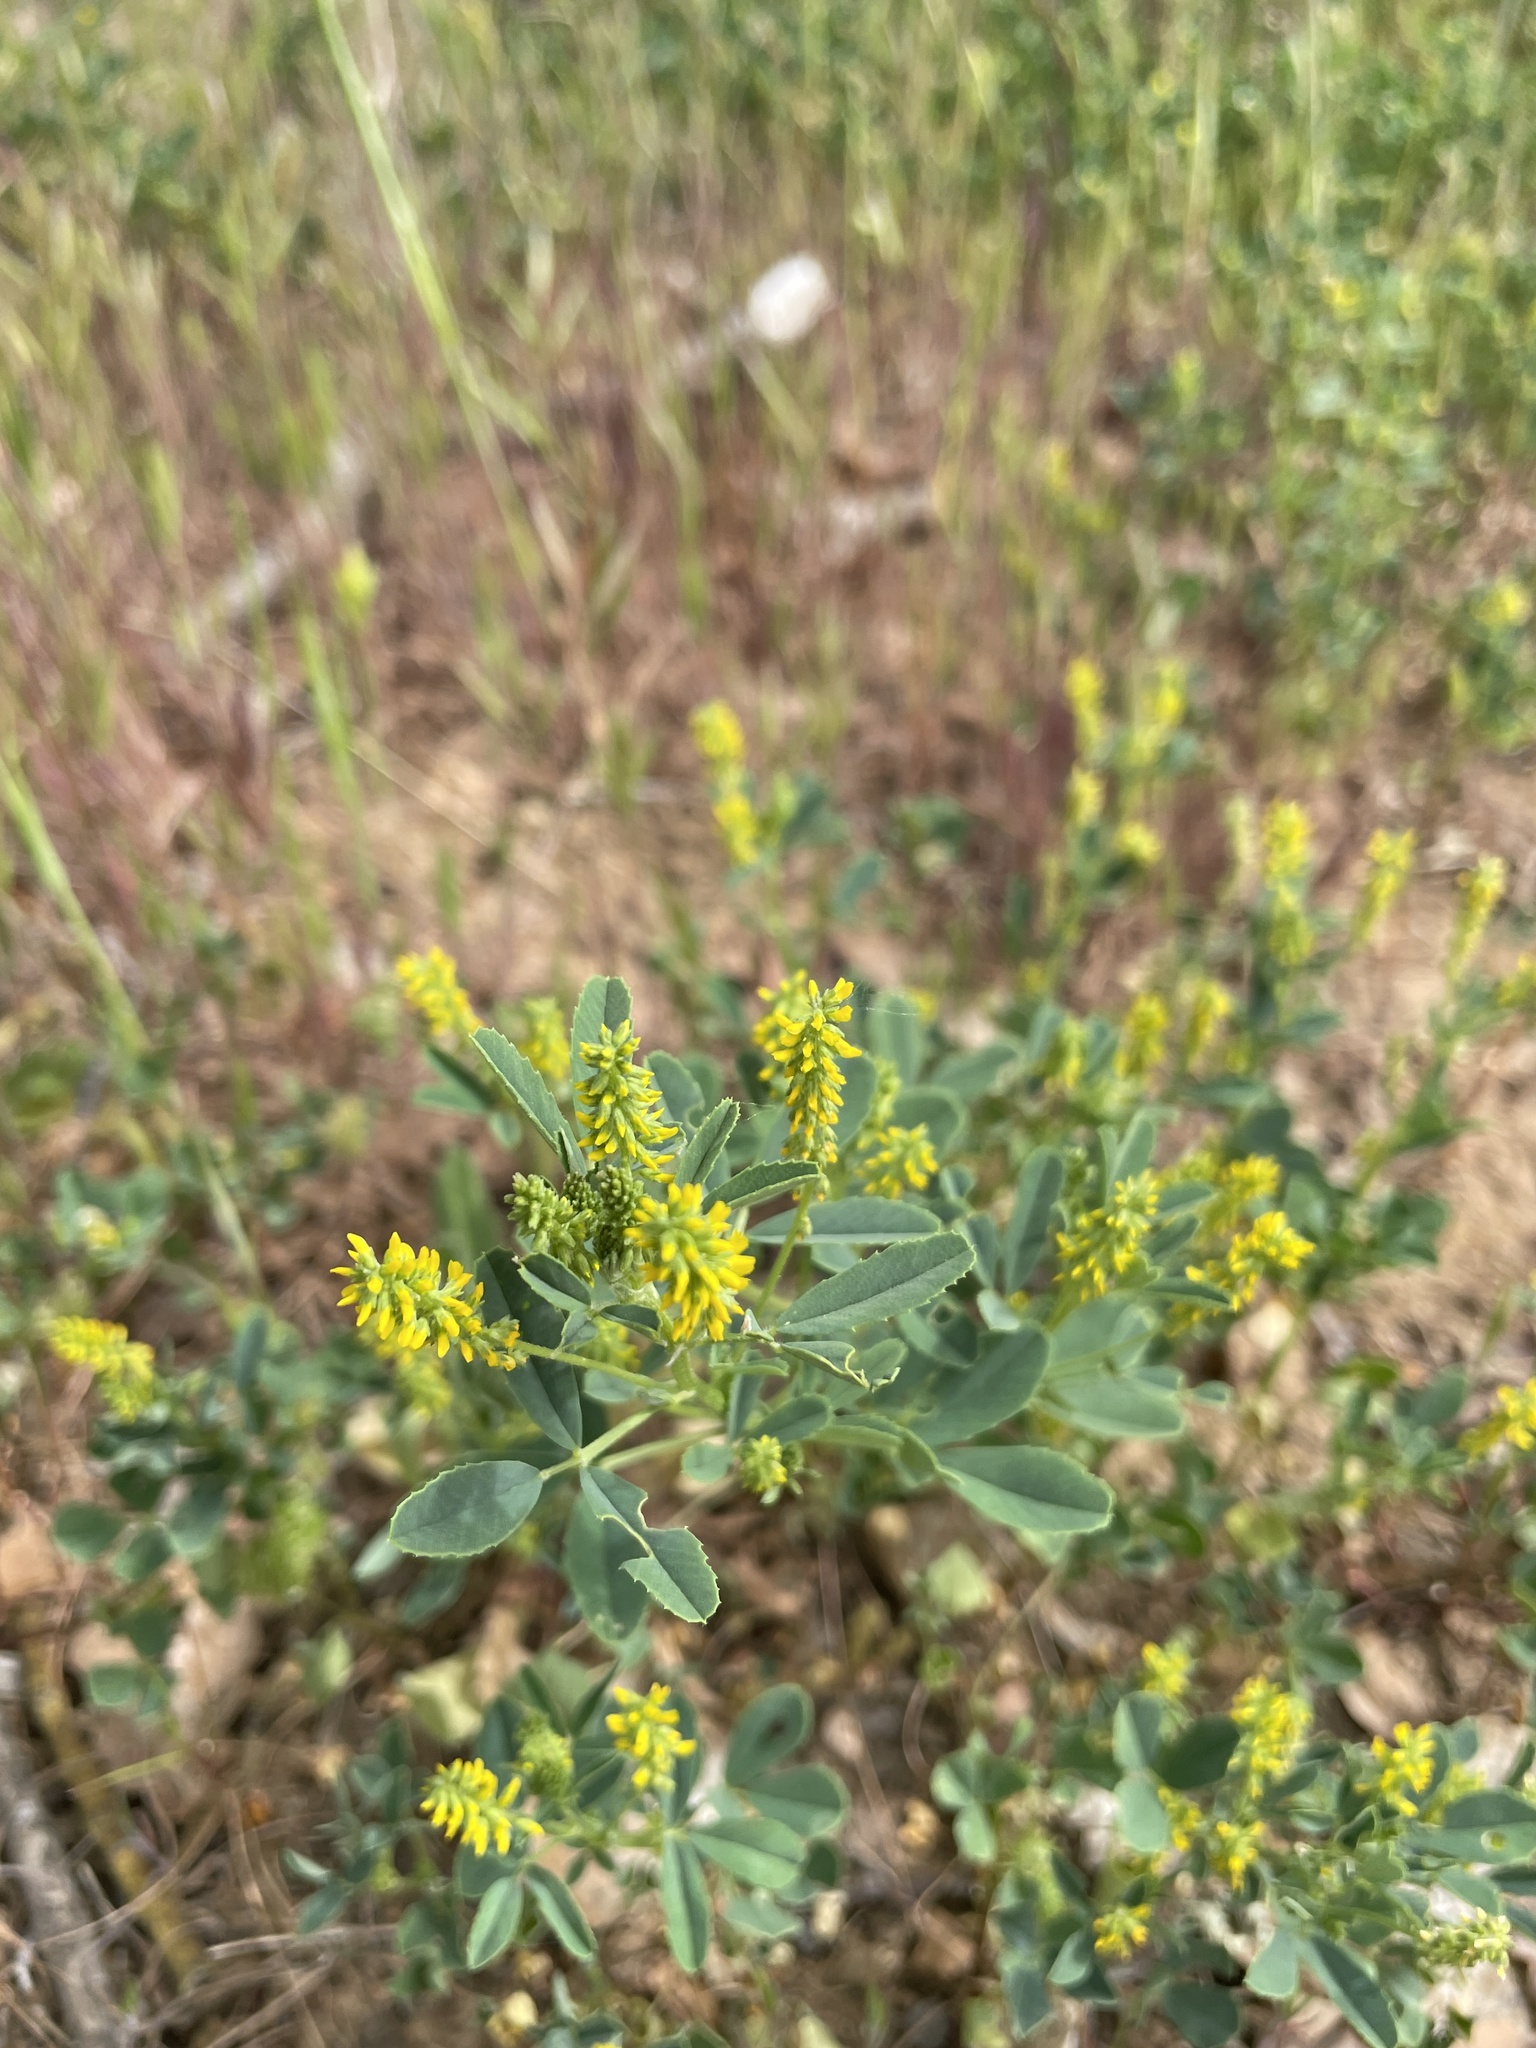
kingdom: Plantae
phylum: Tracheophyta
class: Magnoliopsida
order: Fabales
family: Fabaceae
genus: Melilotus
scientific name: Melilotus indicus
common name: Small melilot
